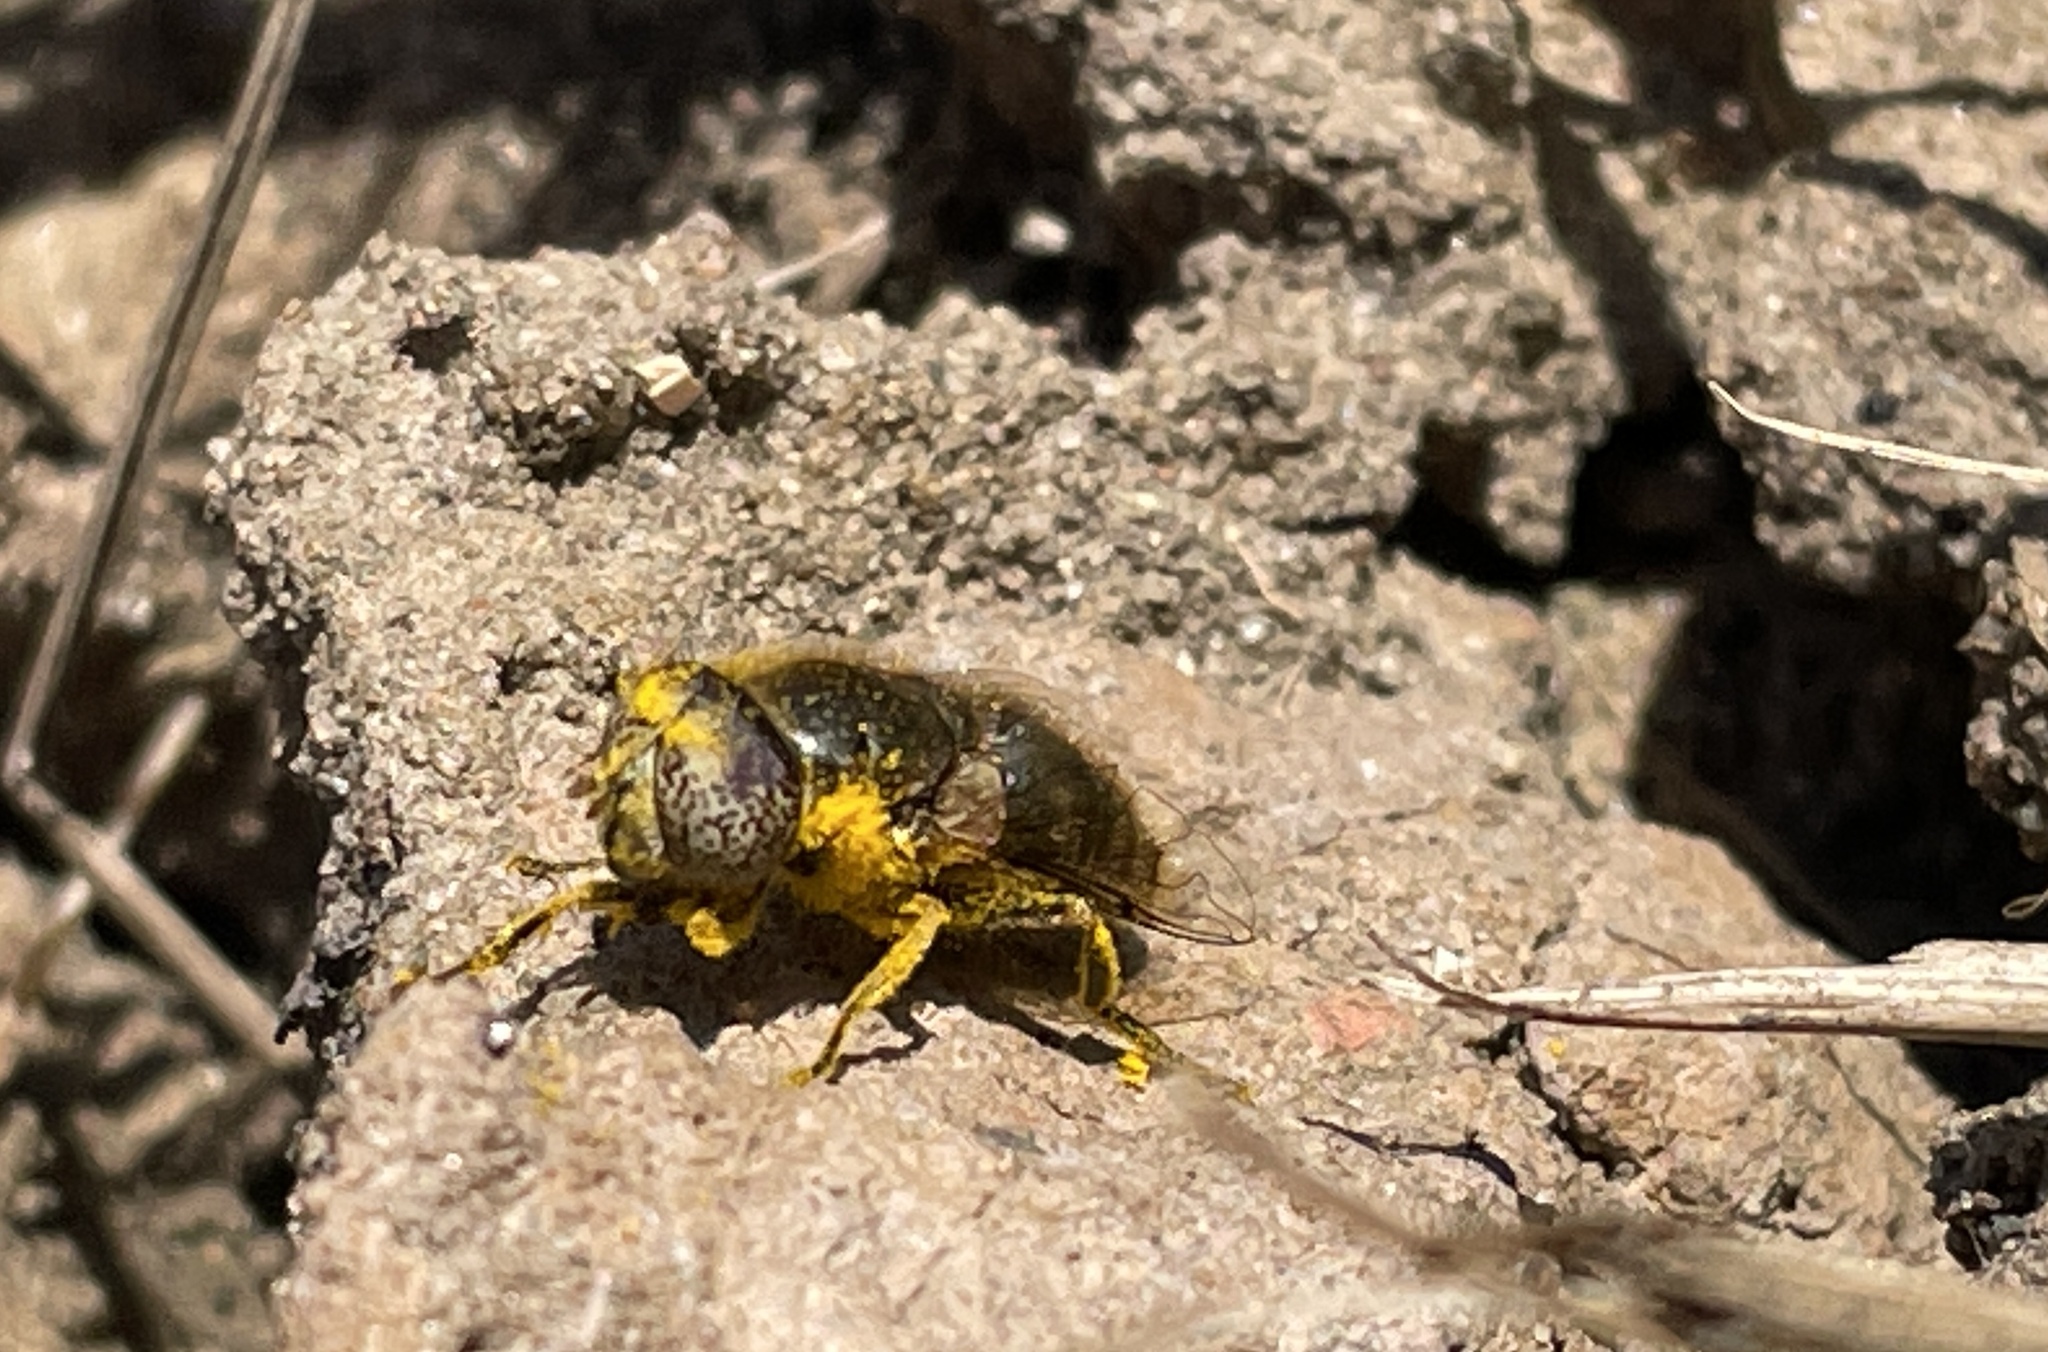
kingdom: Animalia
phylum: Arthropoda
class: Insecta
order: Diptera
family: Syrphidae
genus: Eristalinus
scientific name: Eristalinus aeneus
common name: Syrphid fly
